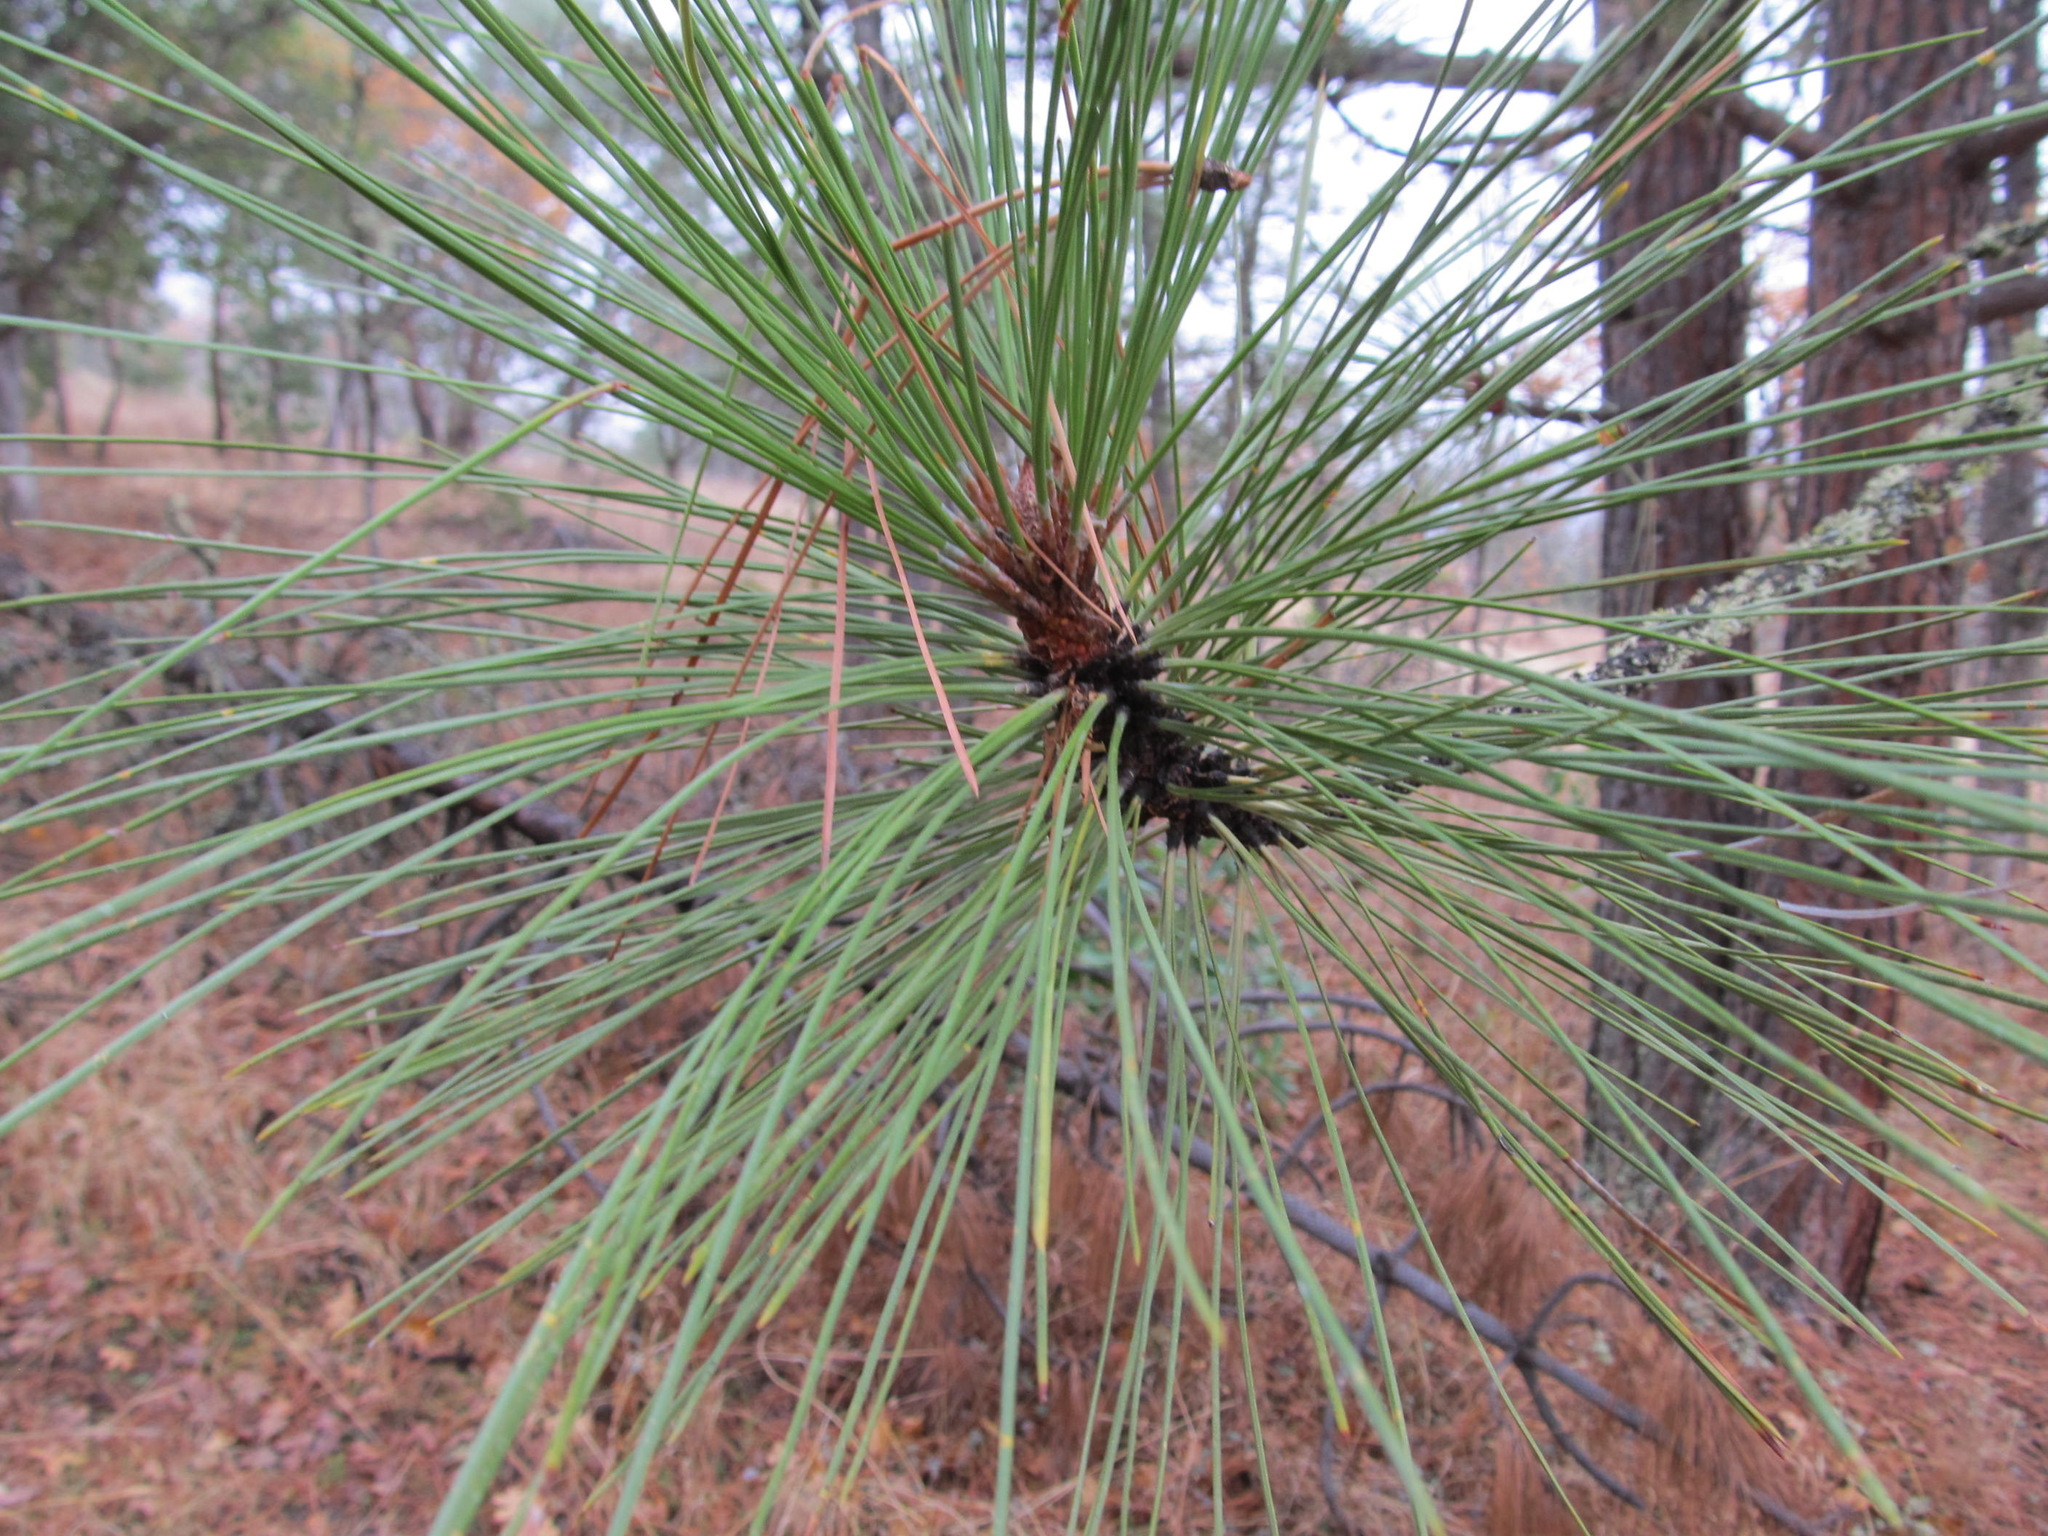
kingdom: Plantae
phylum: Tracheophyta
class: Pinopsida
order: Pinales
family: Pinaceae
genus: Pinus
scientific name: Pinus ponderosa
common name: Western yellow-pine
